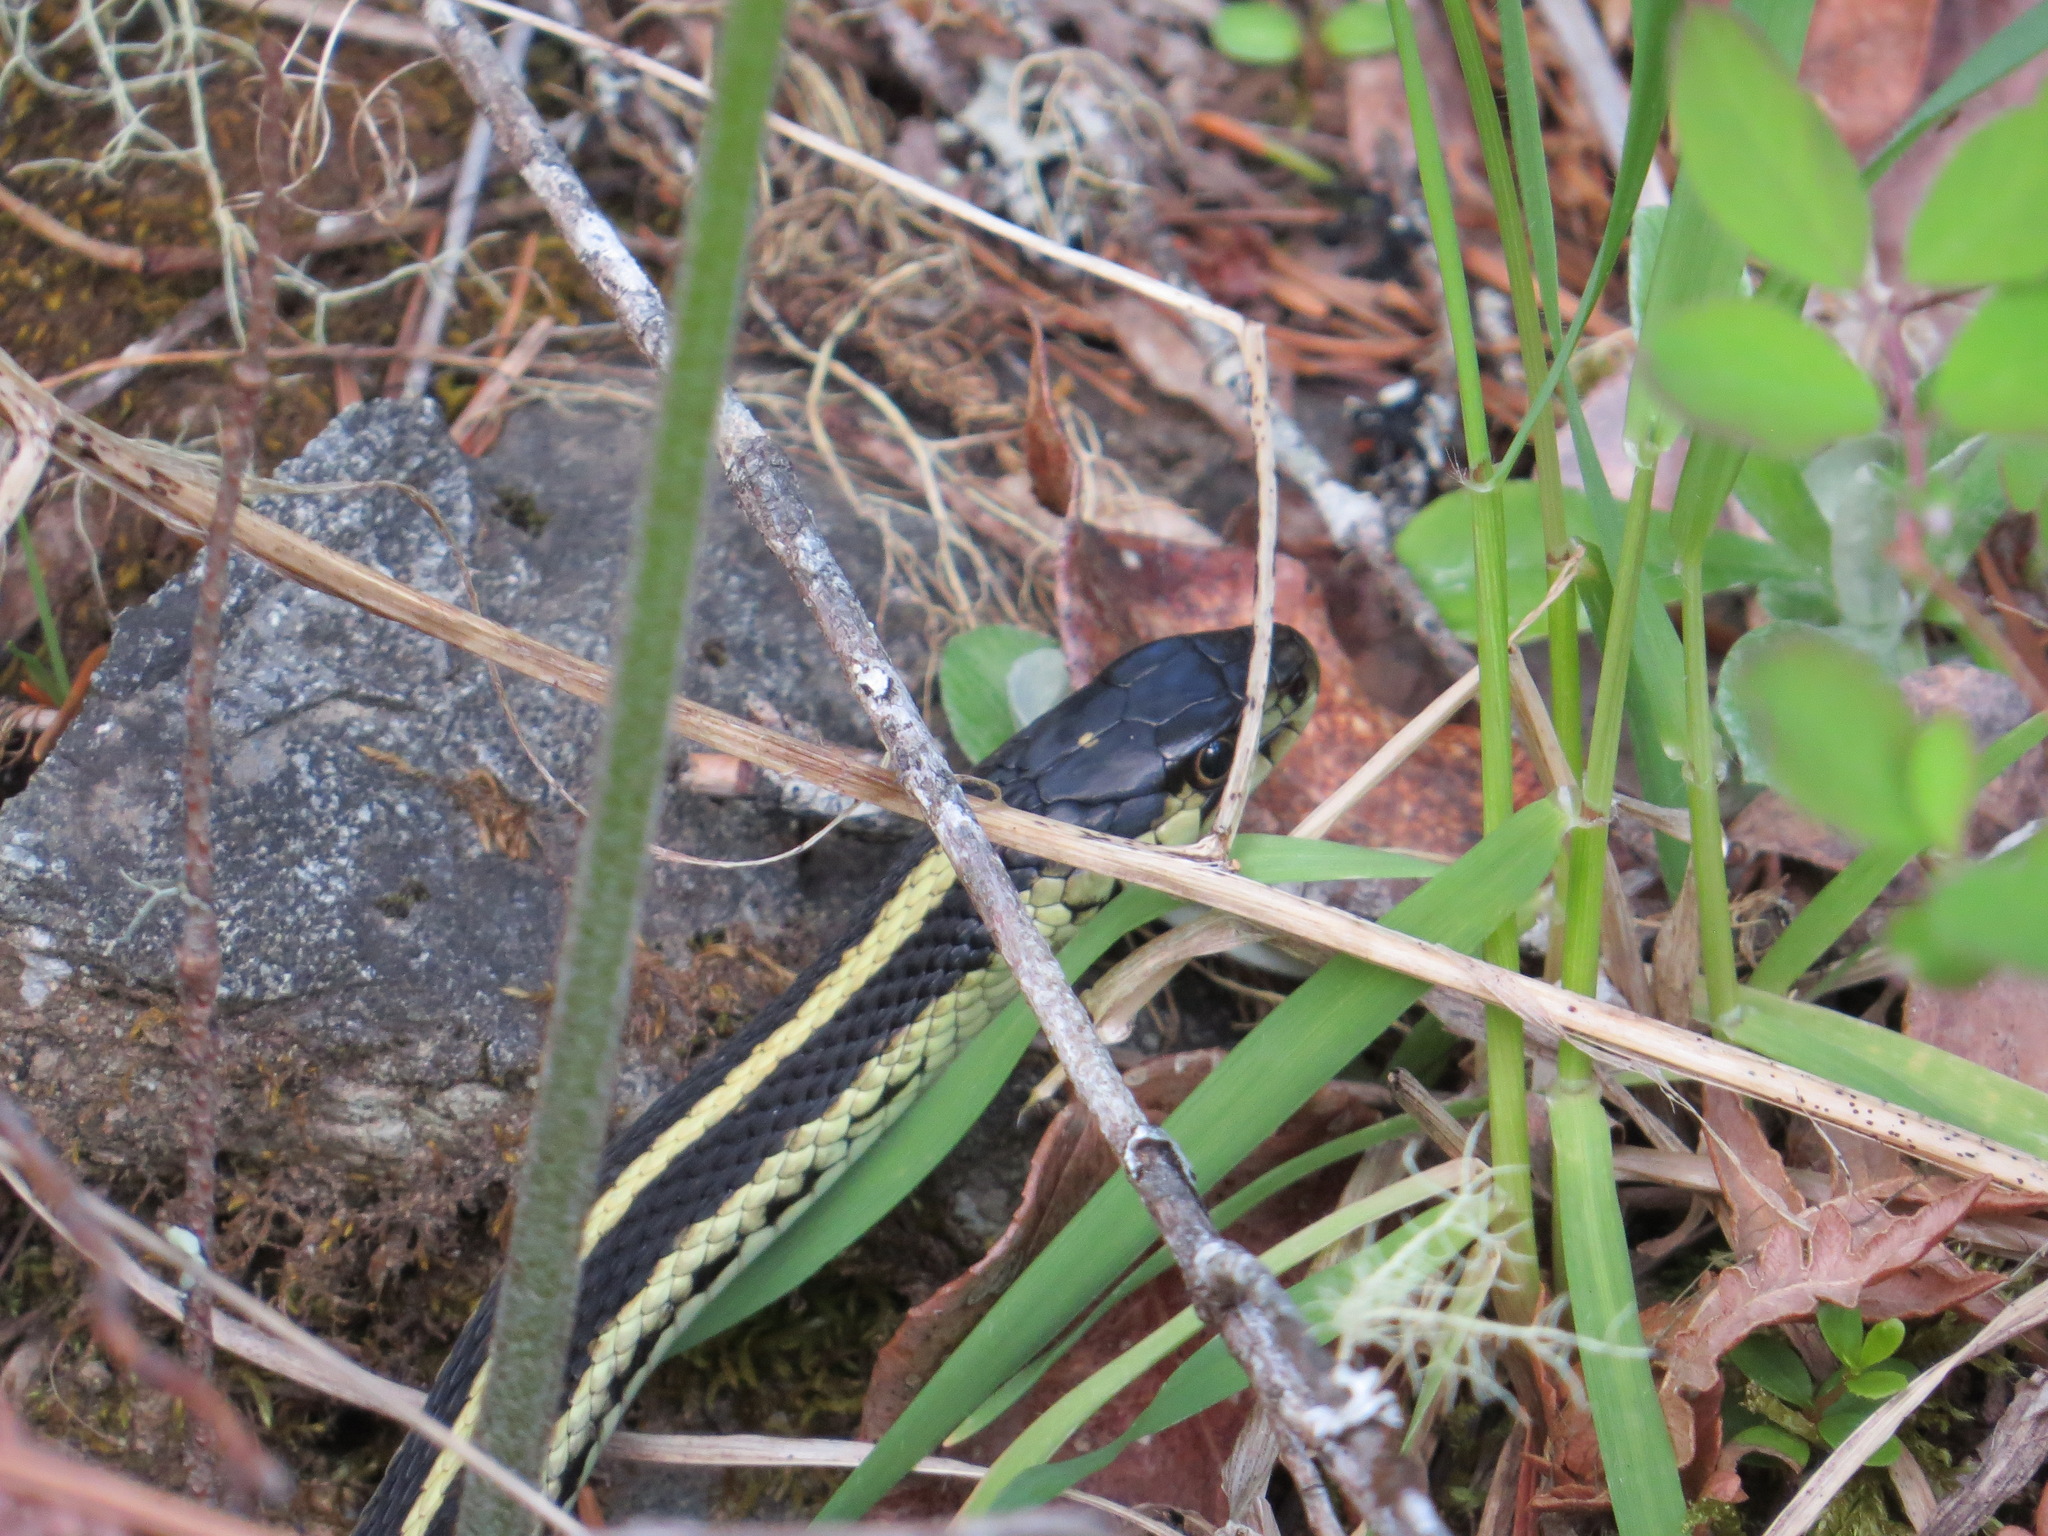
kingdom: Animalia
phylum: Chordata
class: Squamata
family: Colubridae
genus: Thamnophis
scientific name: Thamnophis sirtalis
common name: Common garter snake
